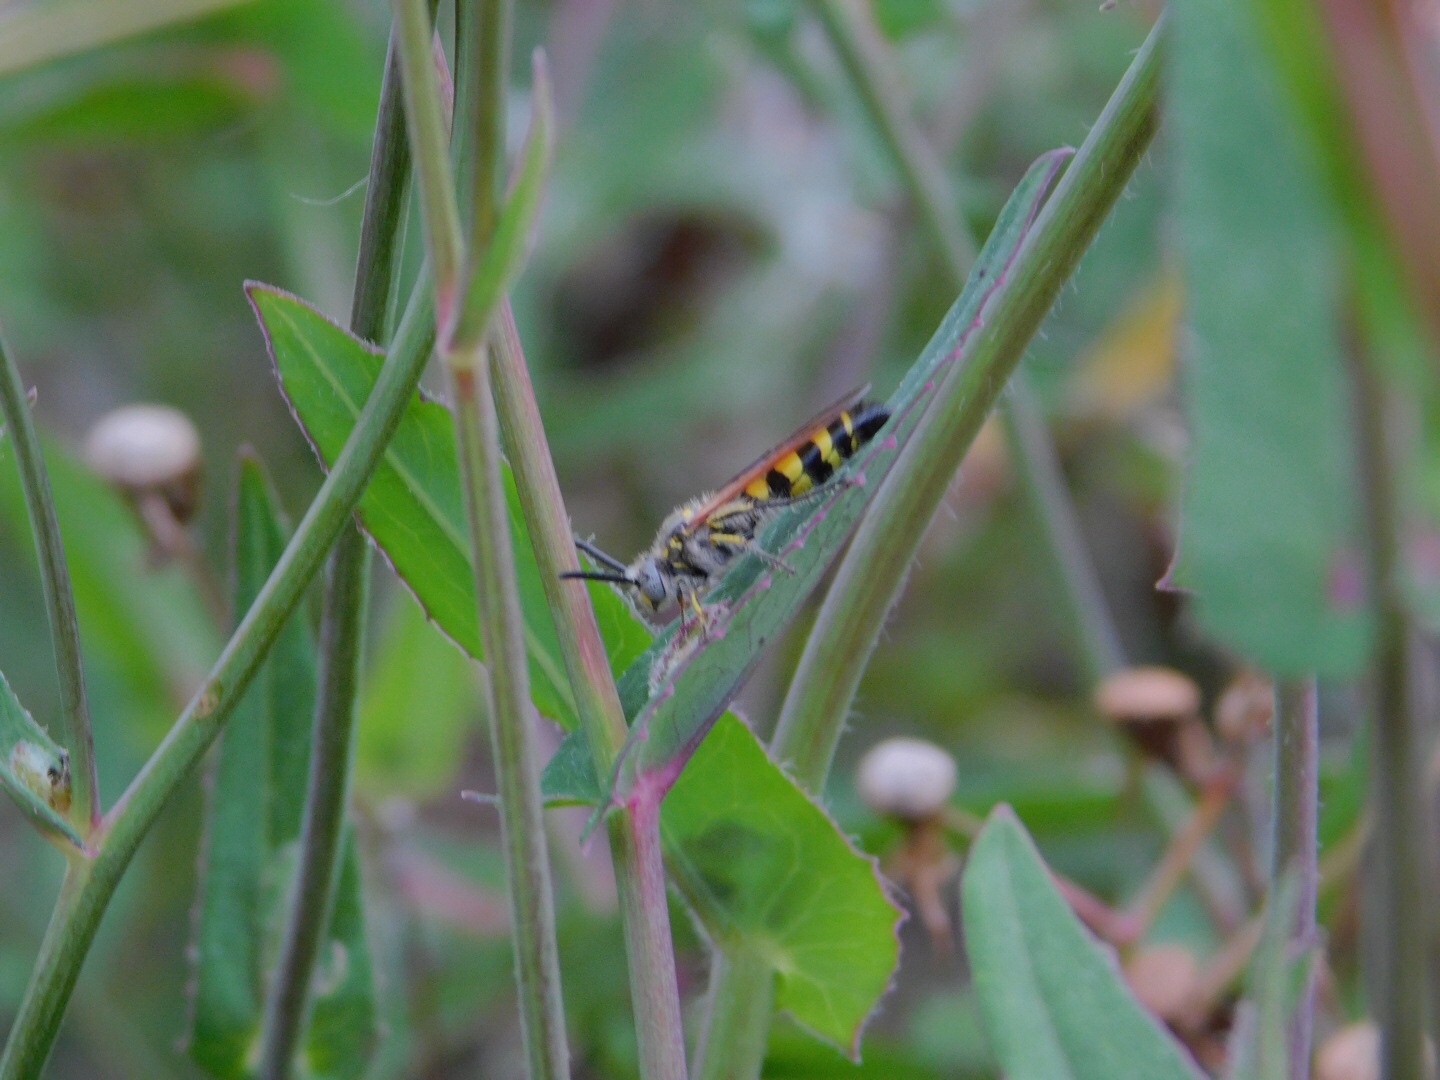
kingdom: Animalia
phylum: Arthropoda
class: Insecta
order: Hymenoptera
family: Scoliidae
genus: Dielis
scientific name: Dielis
